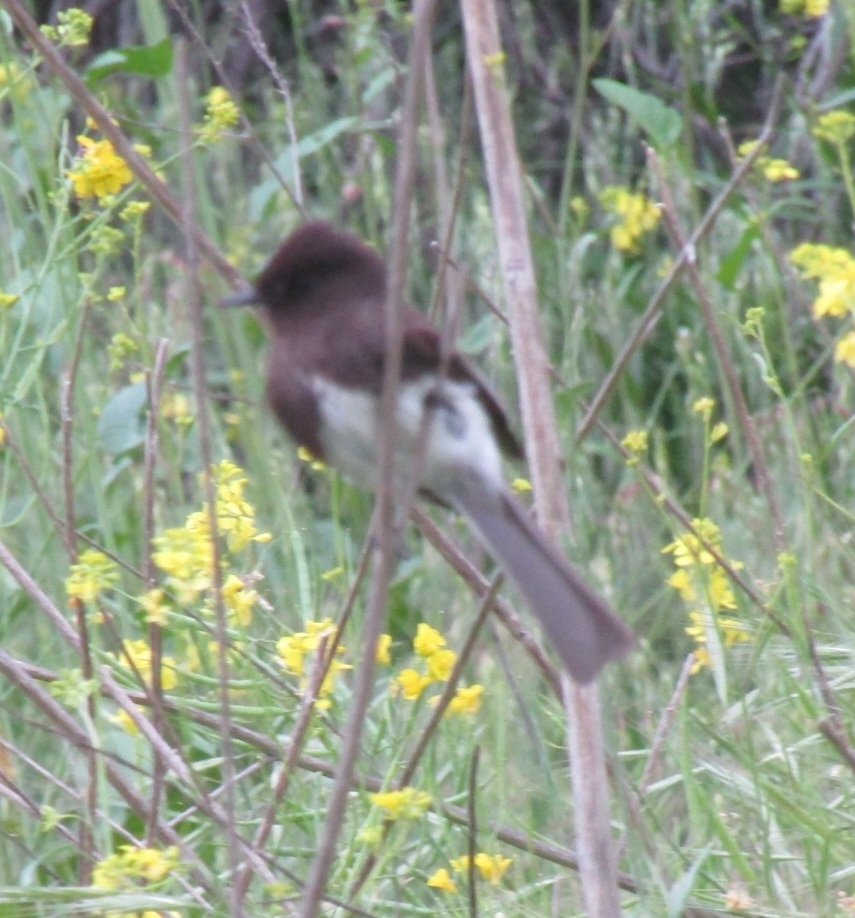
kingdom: Animalia
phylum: Chordata
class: Aves
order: Passeriformes
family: Tyrannidae
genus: Sayornis
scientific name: Sayornis nigricans
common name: Black phoebe
